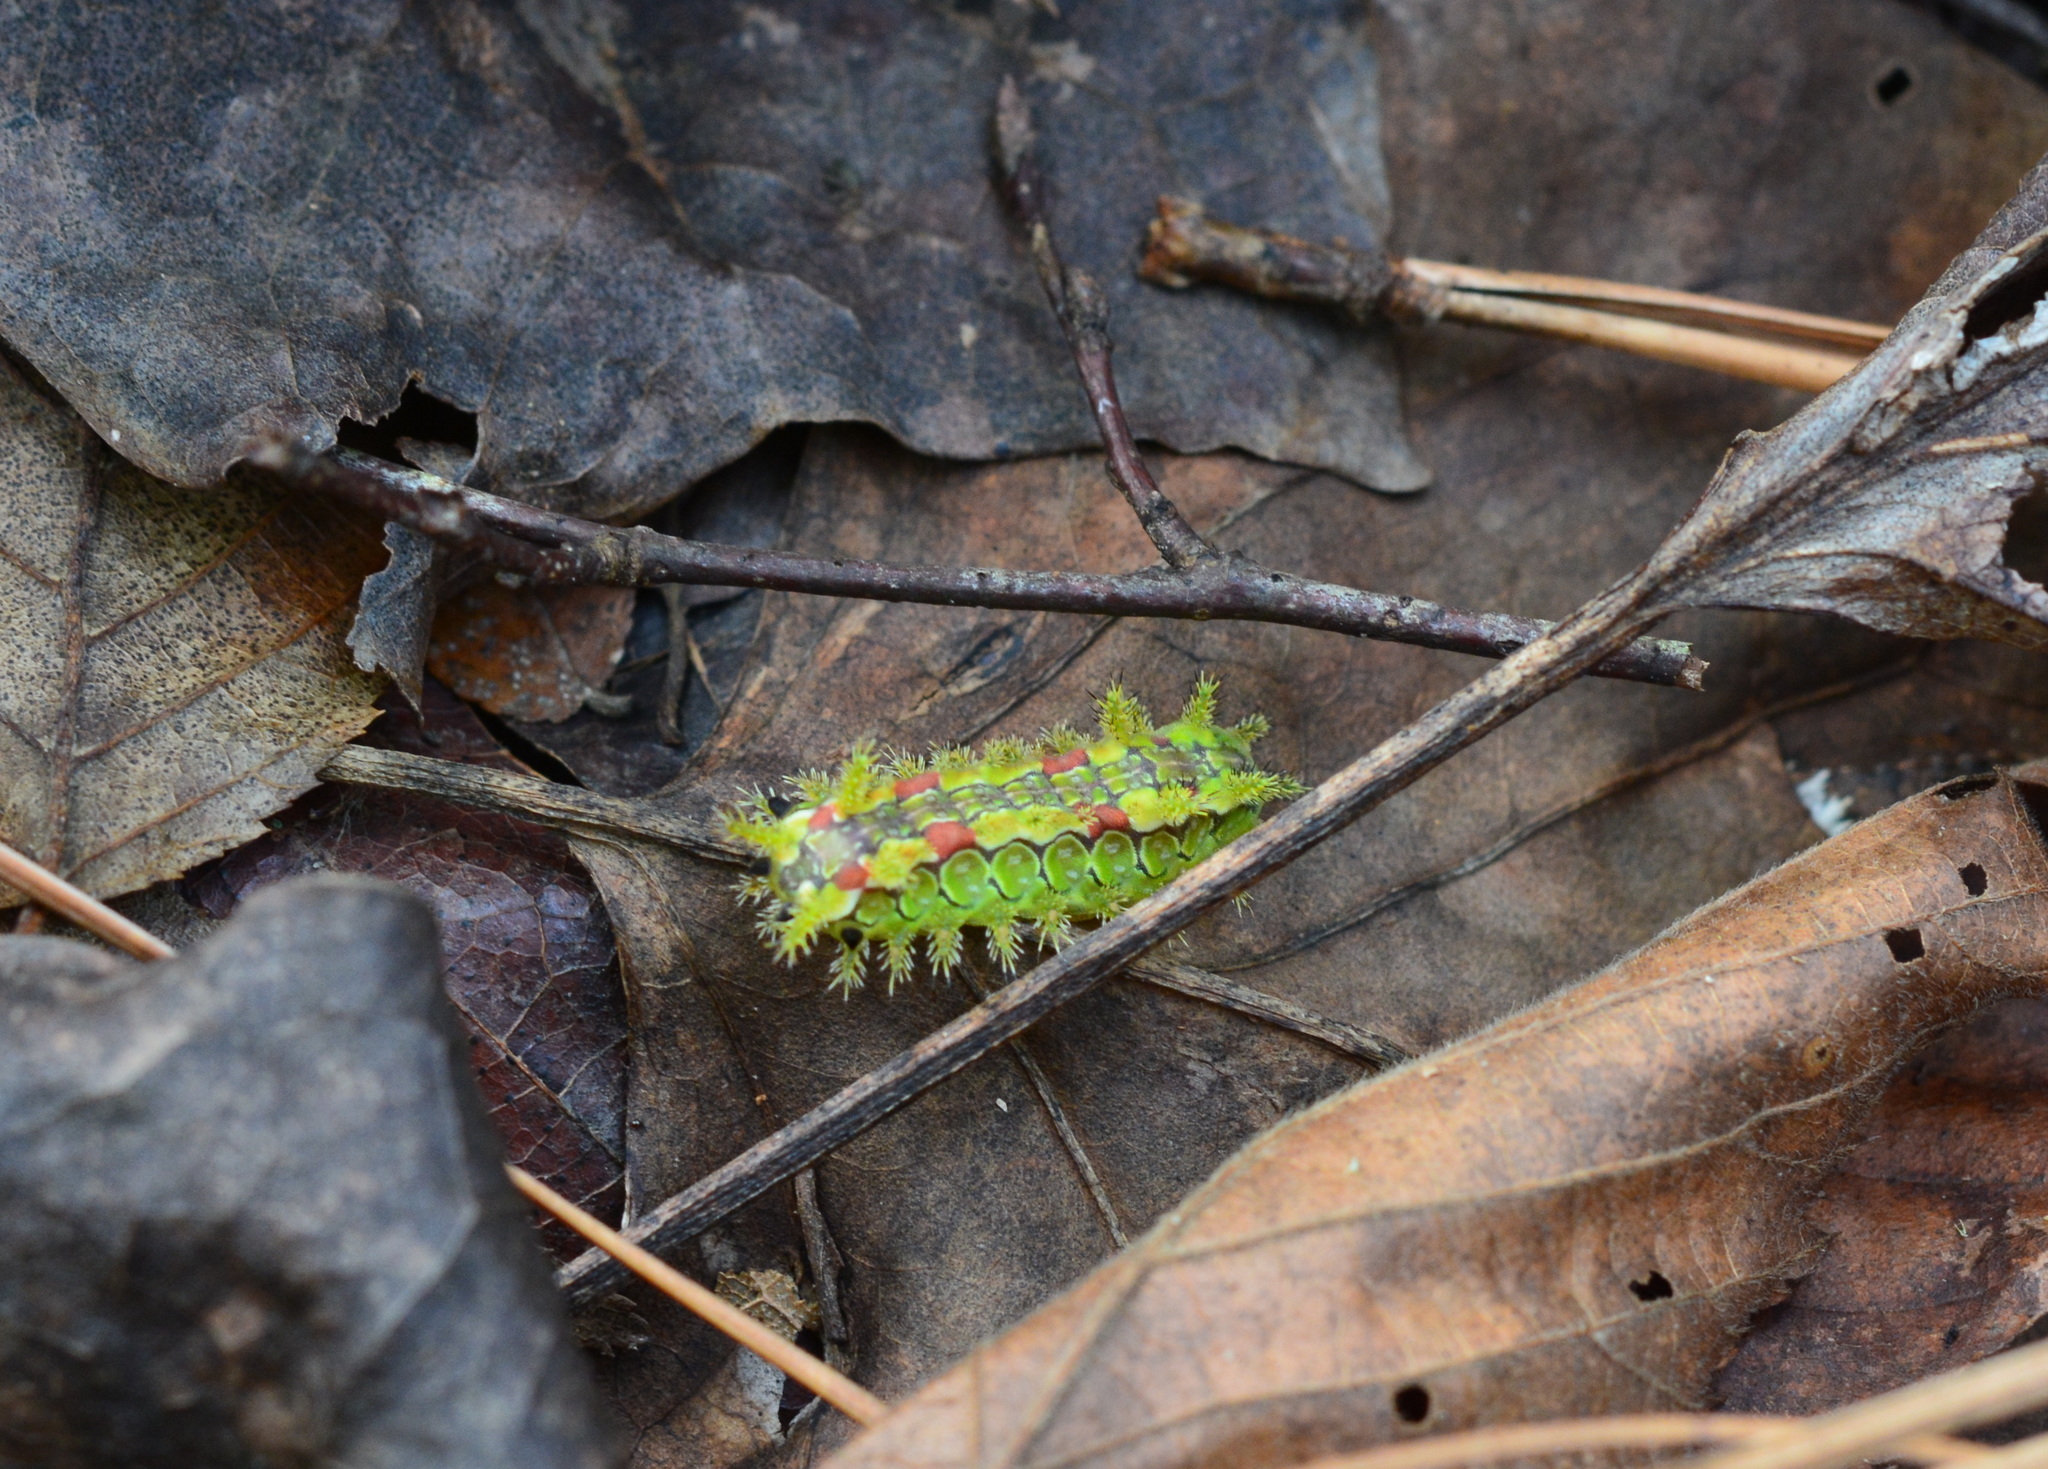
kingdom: Animalia
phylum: Arthropoda
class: Insecta
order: Lepidoptera
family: Limacodidae
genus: Euclea
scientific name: Euclea delphinii
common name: Spiny oak-slug moth
